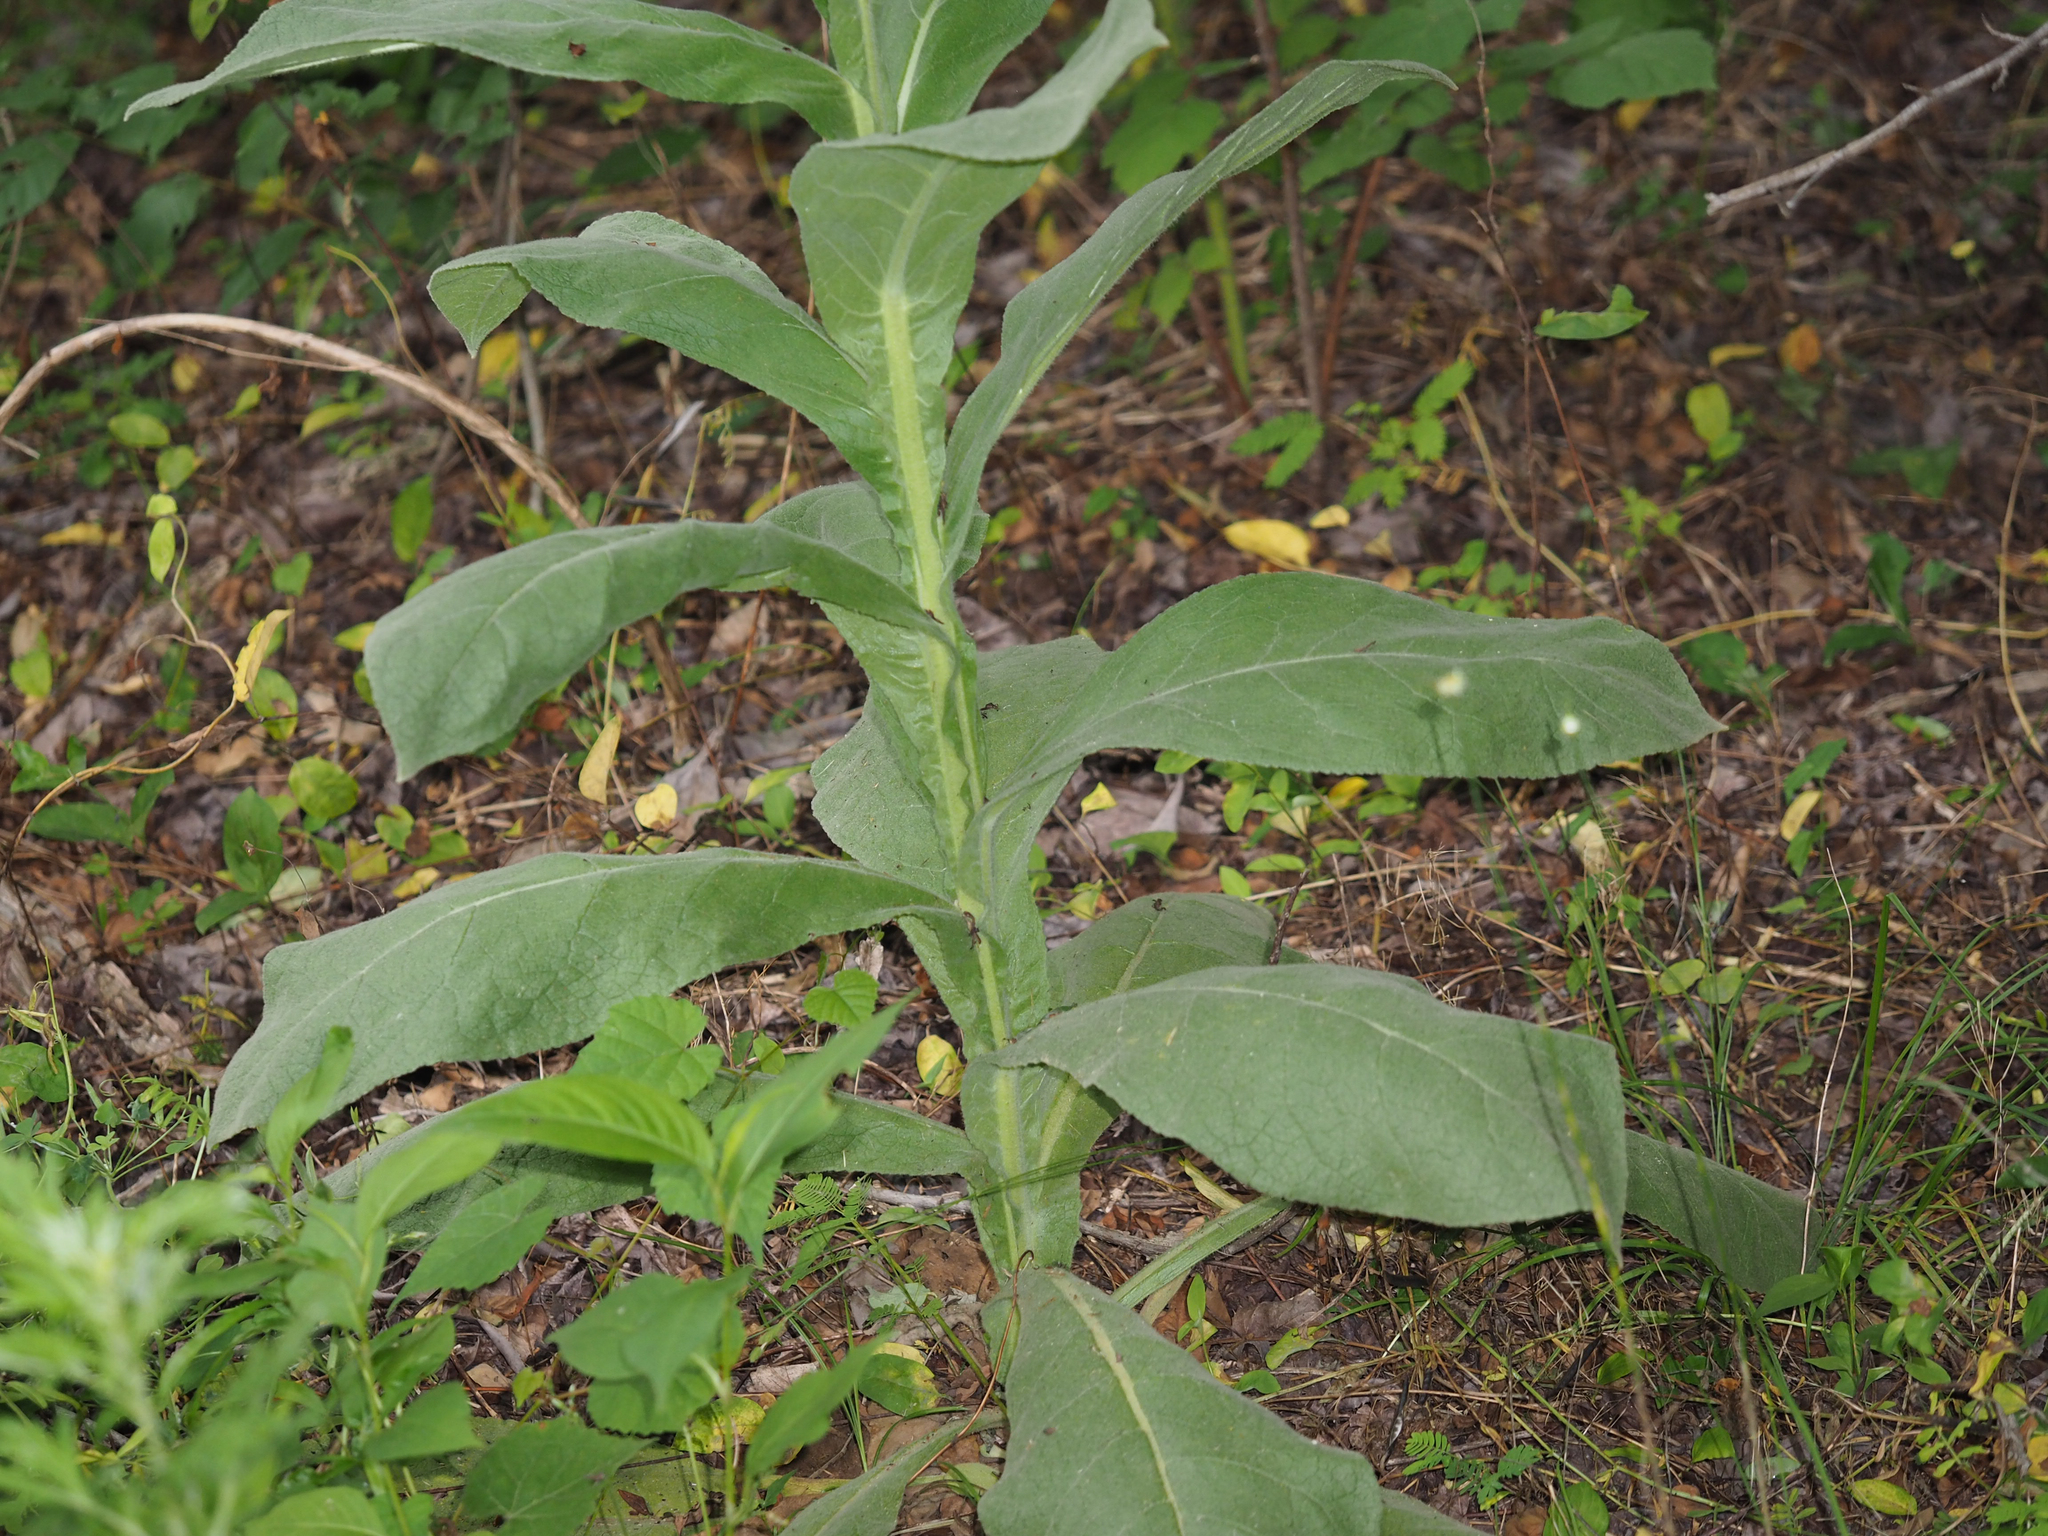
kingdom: Plantae
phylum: Tracheophyta
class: Magnoliopsida
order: Lamiales
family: Scrophulariaceae
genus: Verbascum
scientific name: Verbascum thapsus
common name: Common mullein
